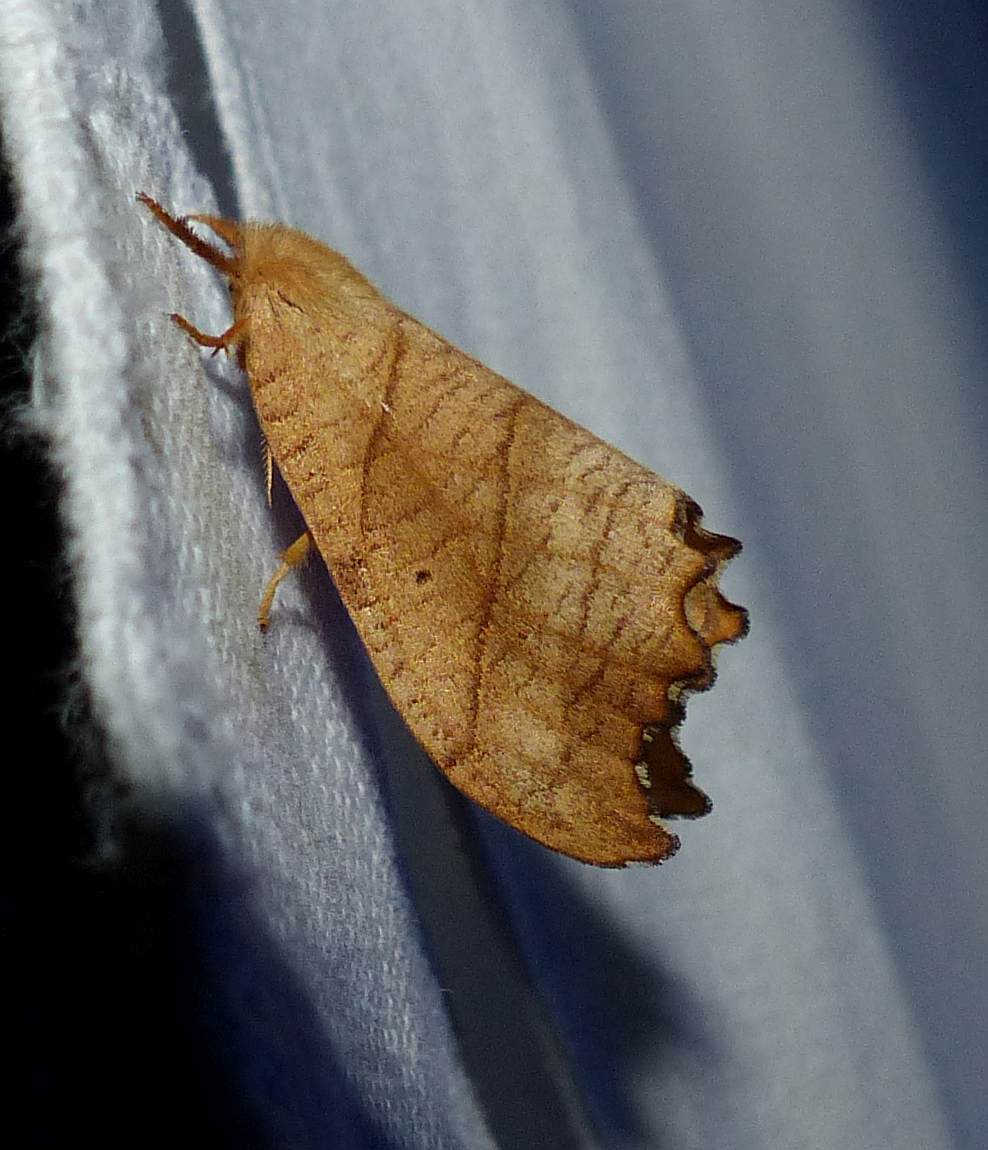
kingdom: Animalia
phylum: Arthropoda
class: Insecta
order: Lepidoptera
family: Drepanidae
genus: Falcaria
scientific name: Falcaria bilineata
